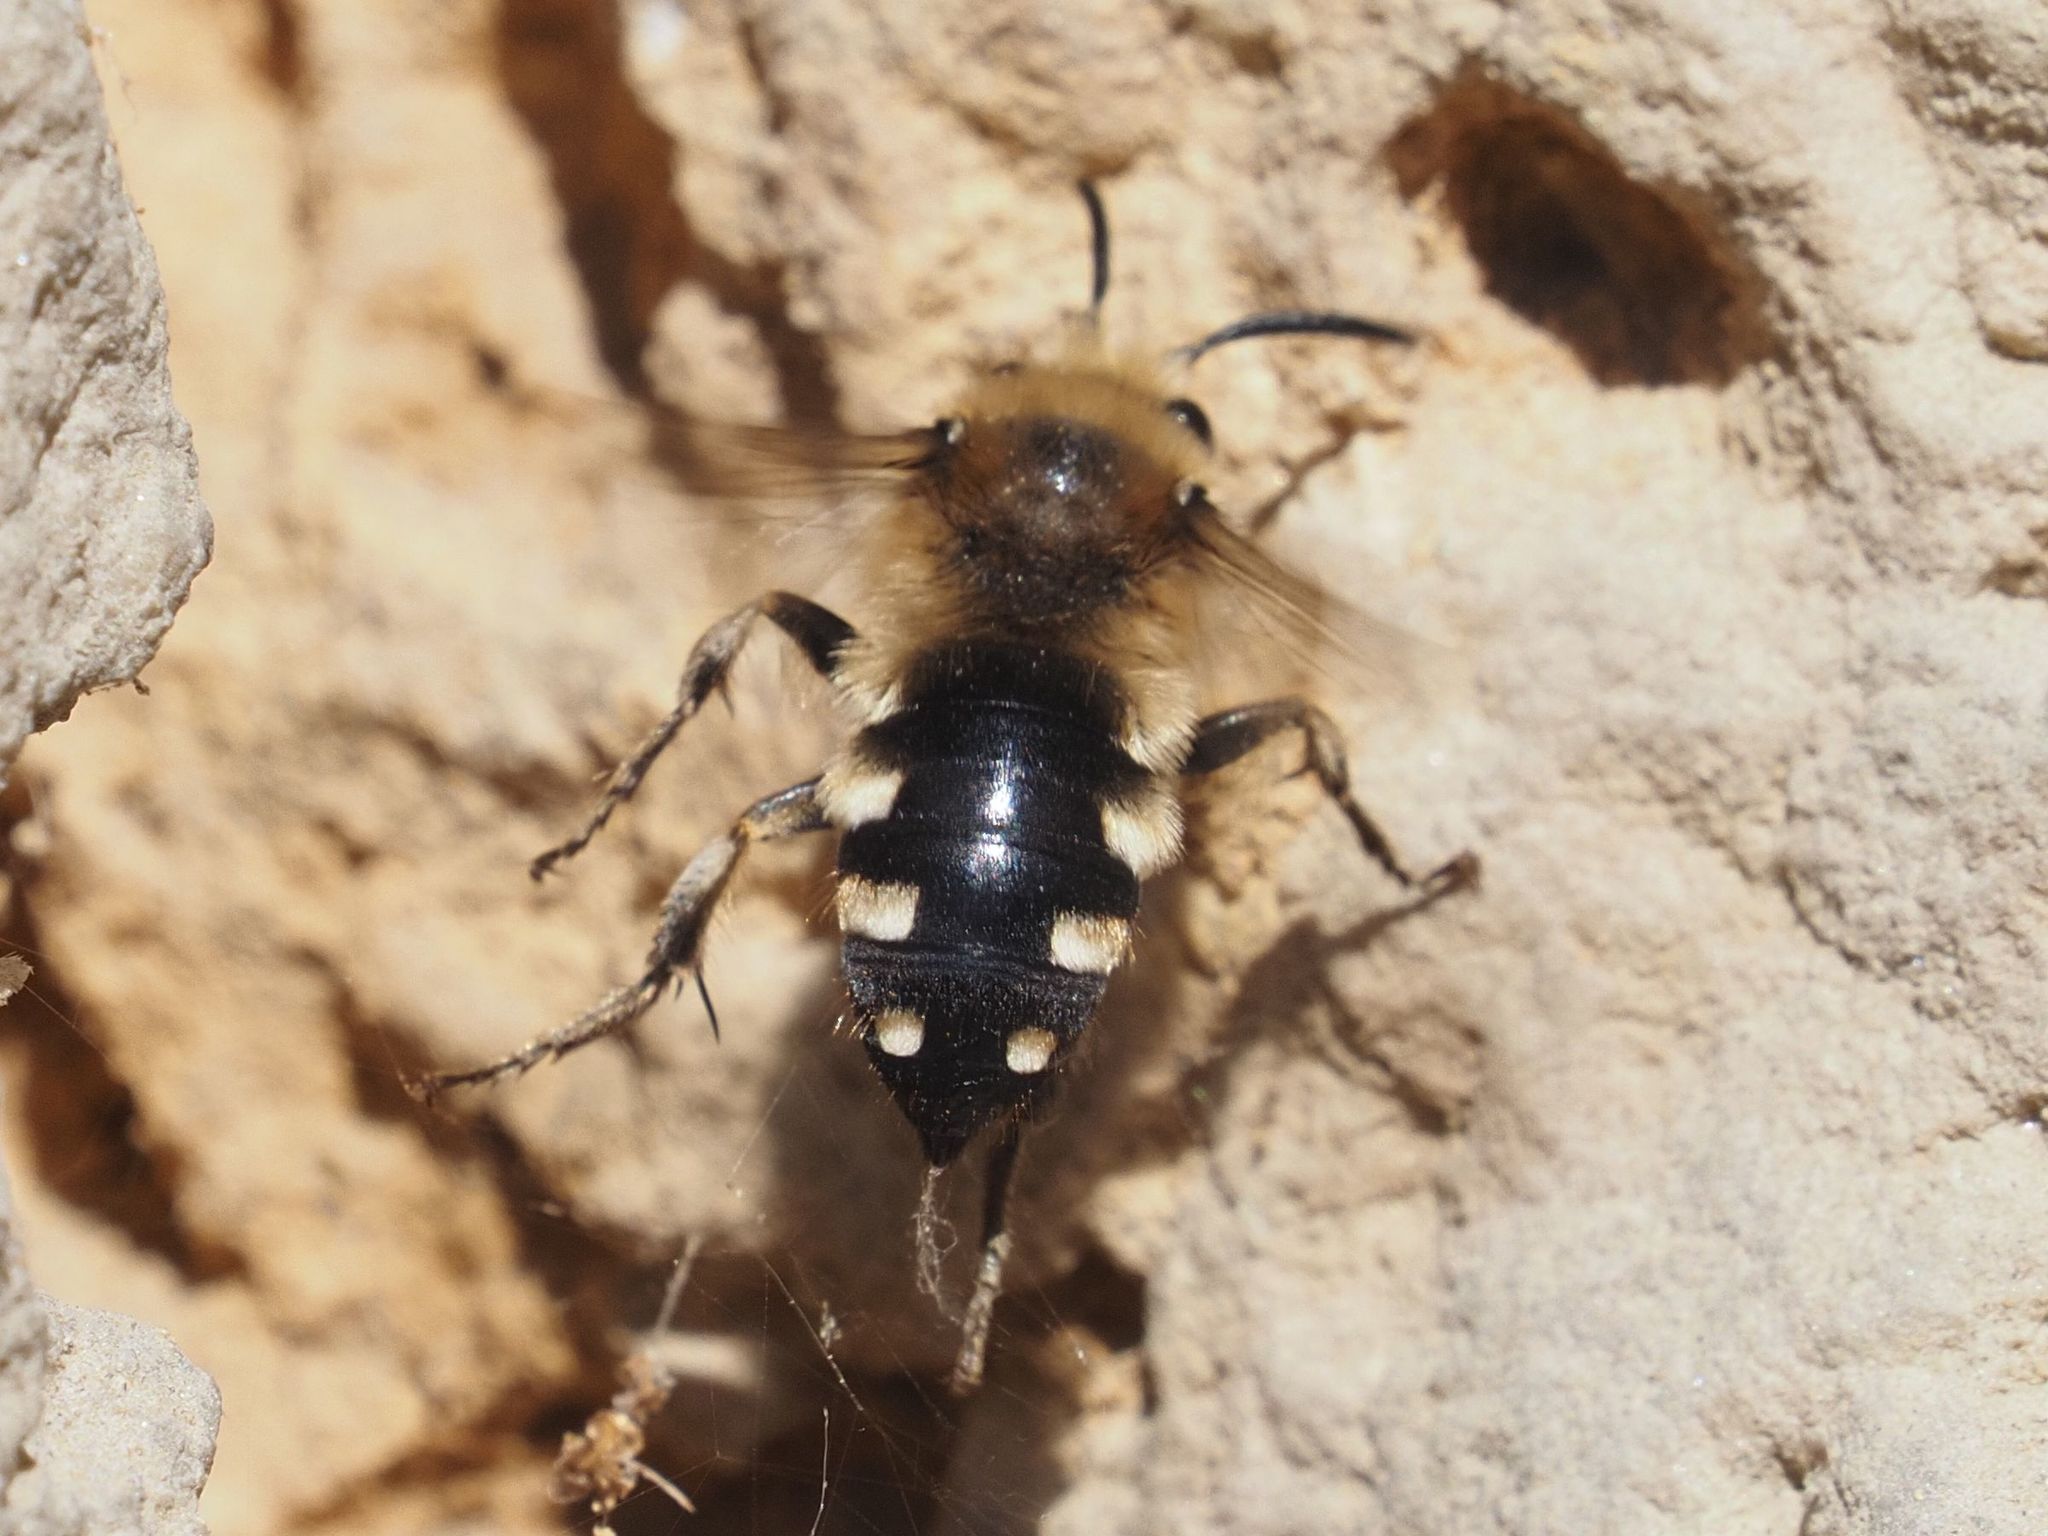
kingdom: Animalia
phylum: Arthropoda
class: Insecta
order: Hymenoptera
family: Apidae
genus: Melecta
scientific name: Melecta albifrons
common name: Common mourning bee
